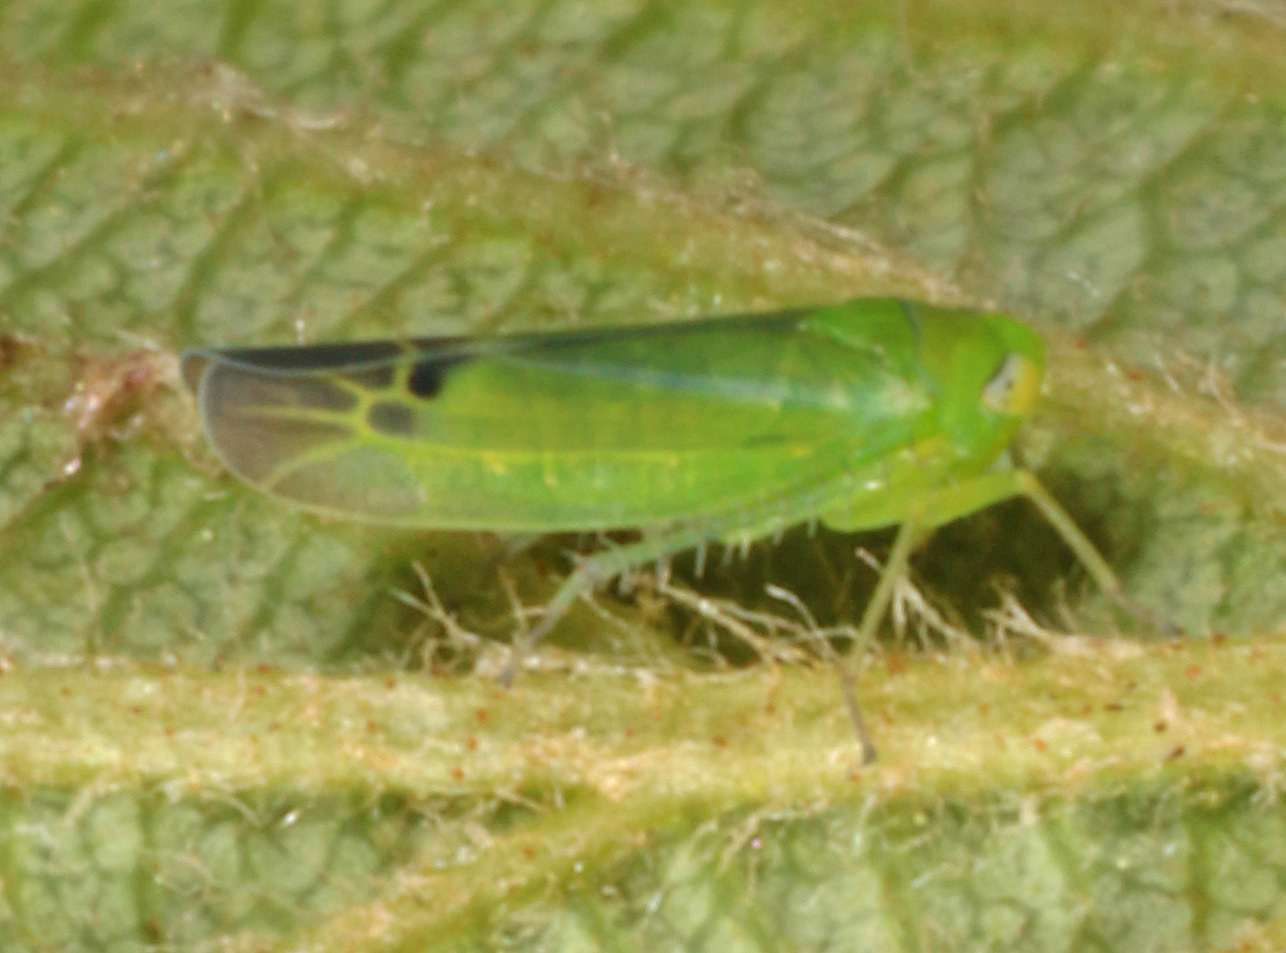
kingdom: Animalia
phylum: Arthropoda
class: Insecta
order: Hemiptera
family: Cicadellidae
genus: Kyboasca
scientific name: Kyboasca atrolabes
